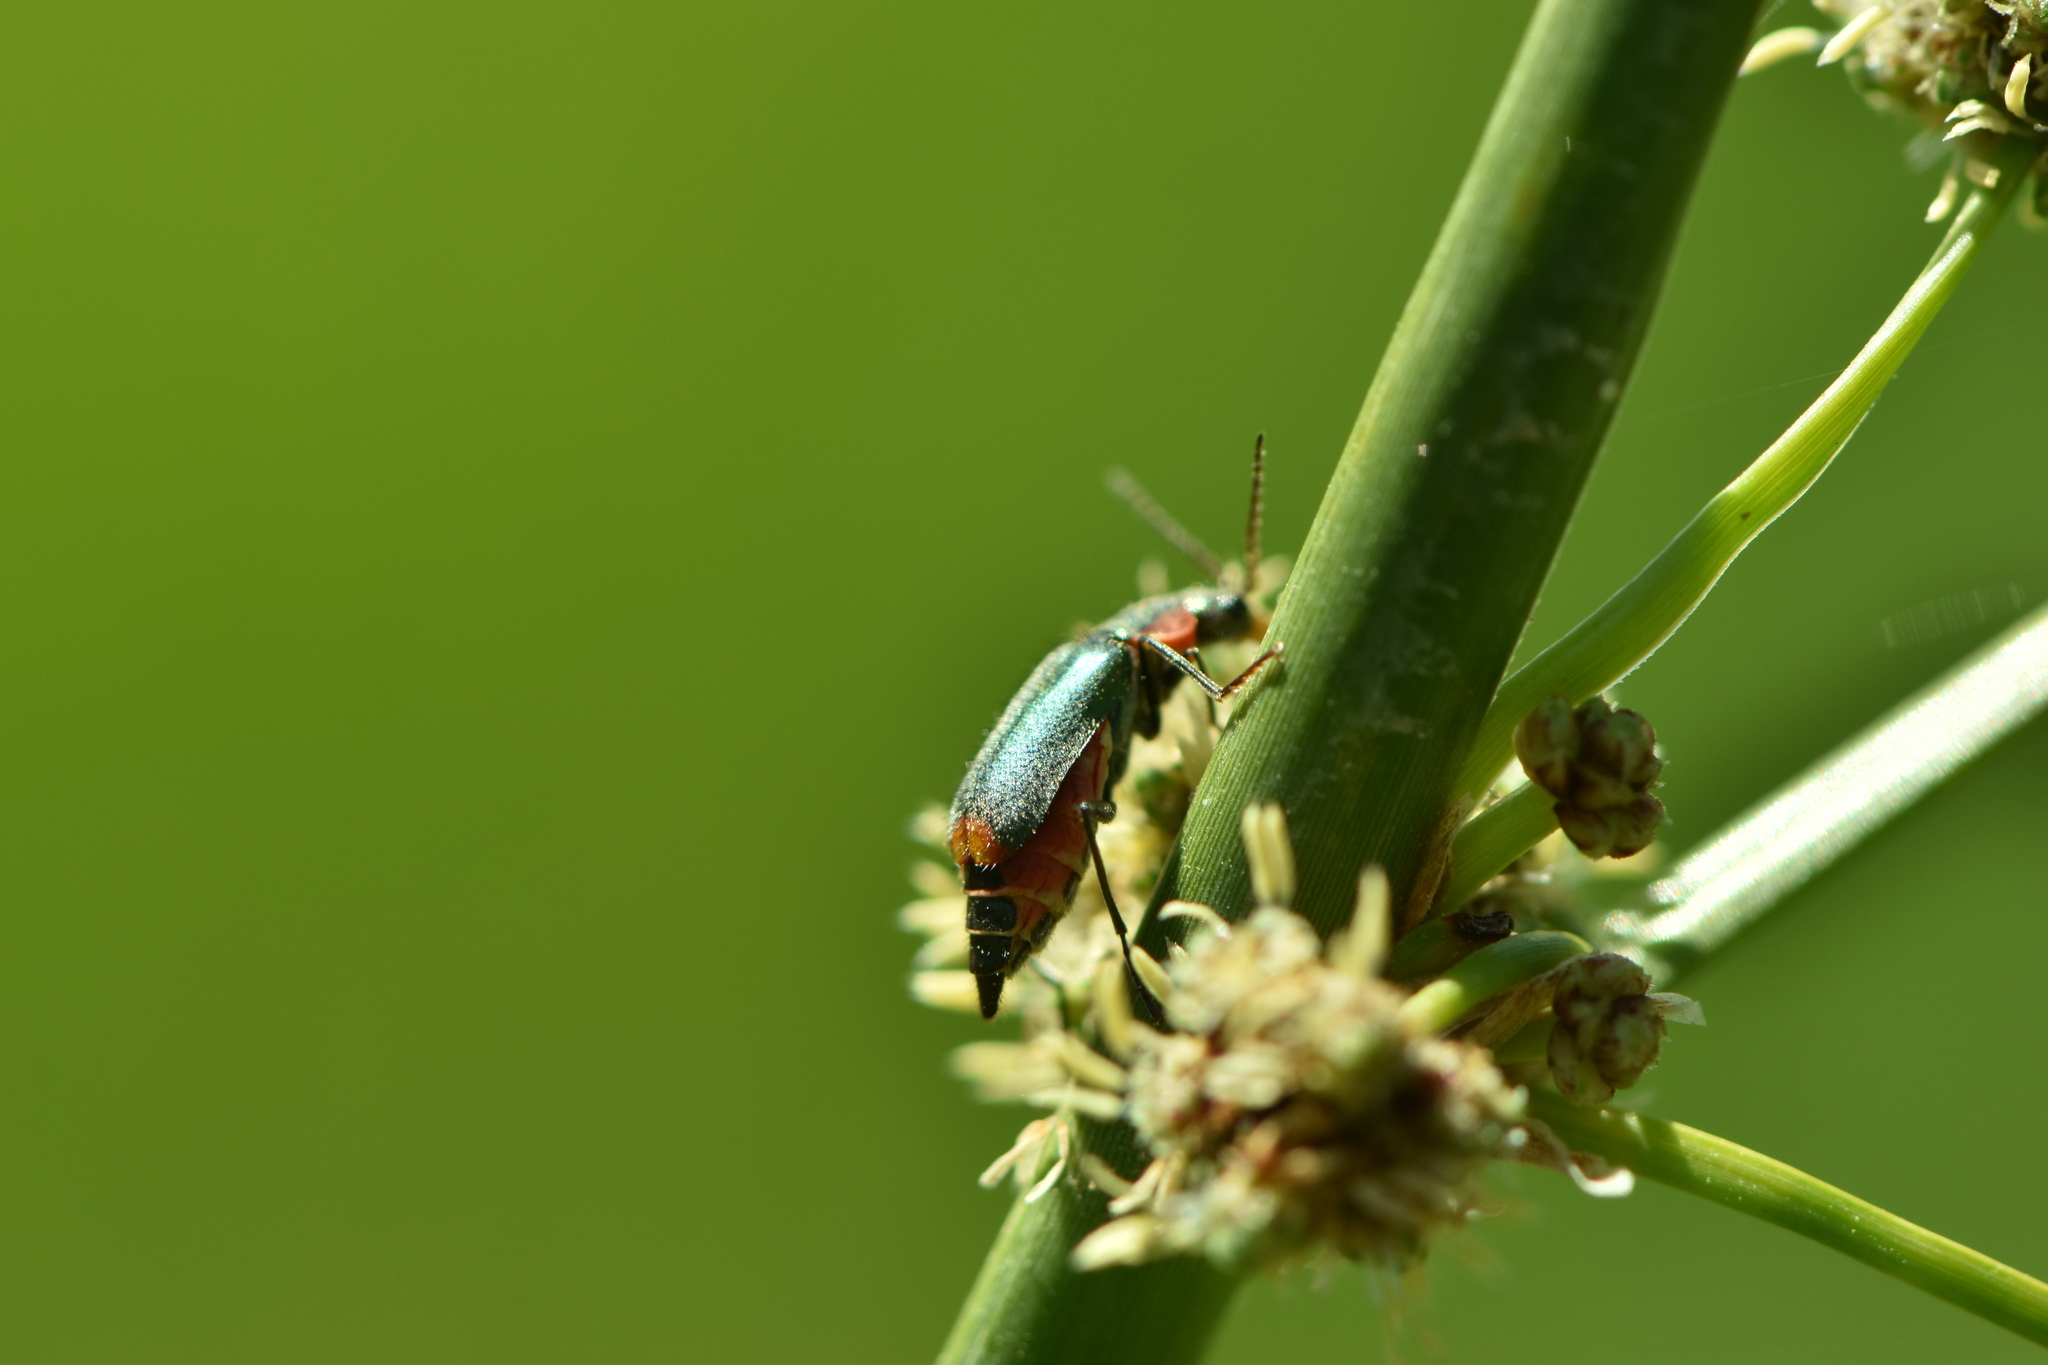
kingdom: Animalia
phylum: Arthropoda
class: Insecta
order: Coleoptera
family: Malachiidae
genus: Clanoptilus
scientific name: Clanoptilus marginellus
